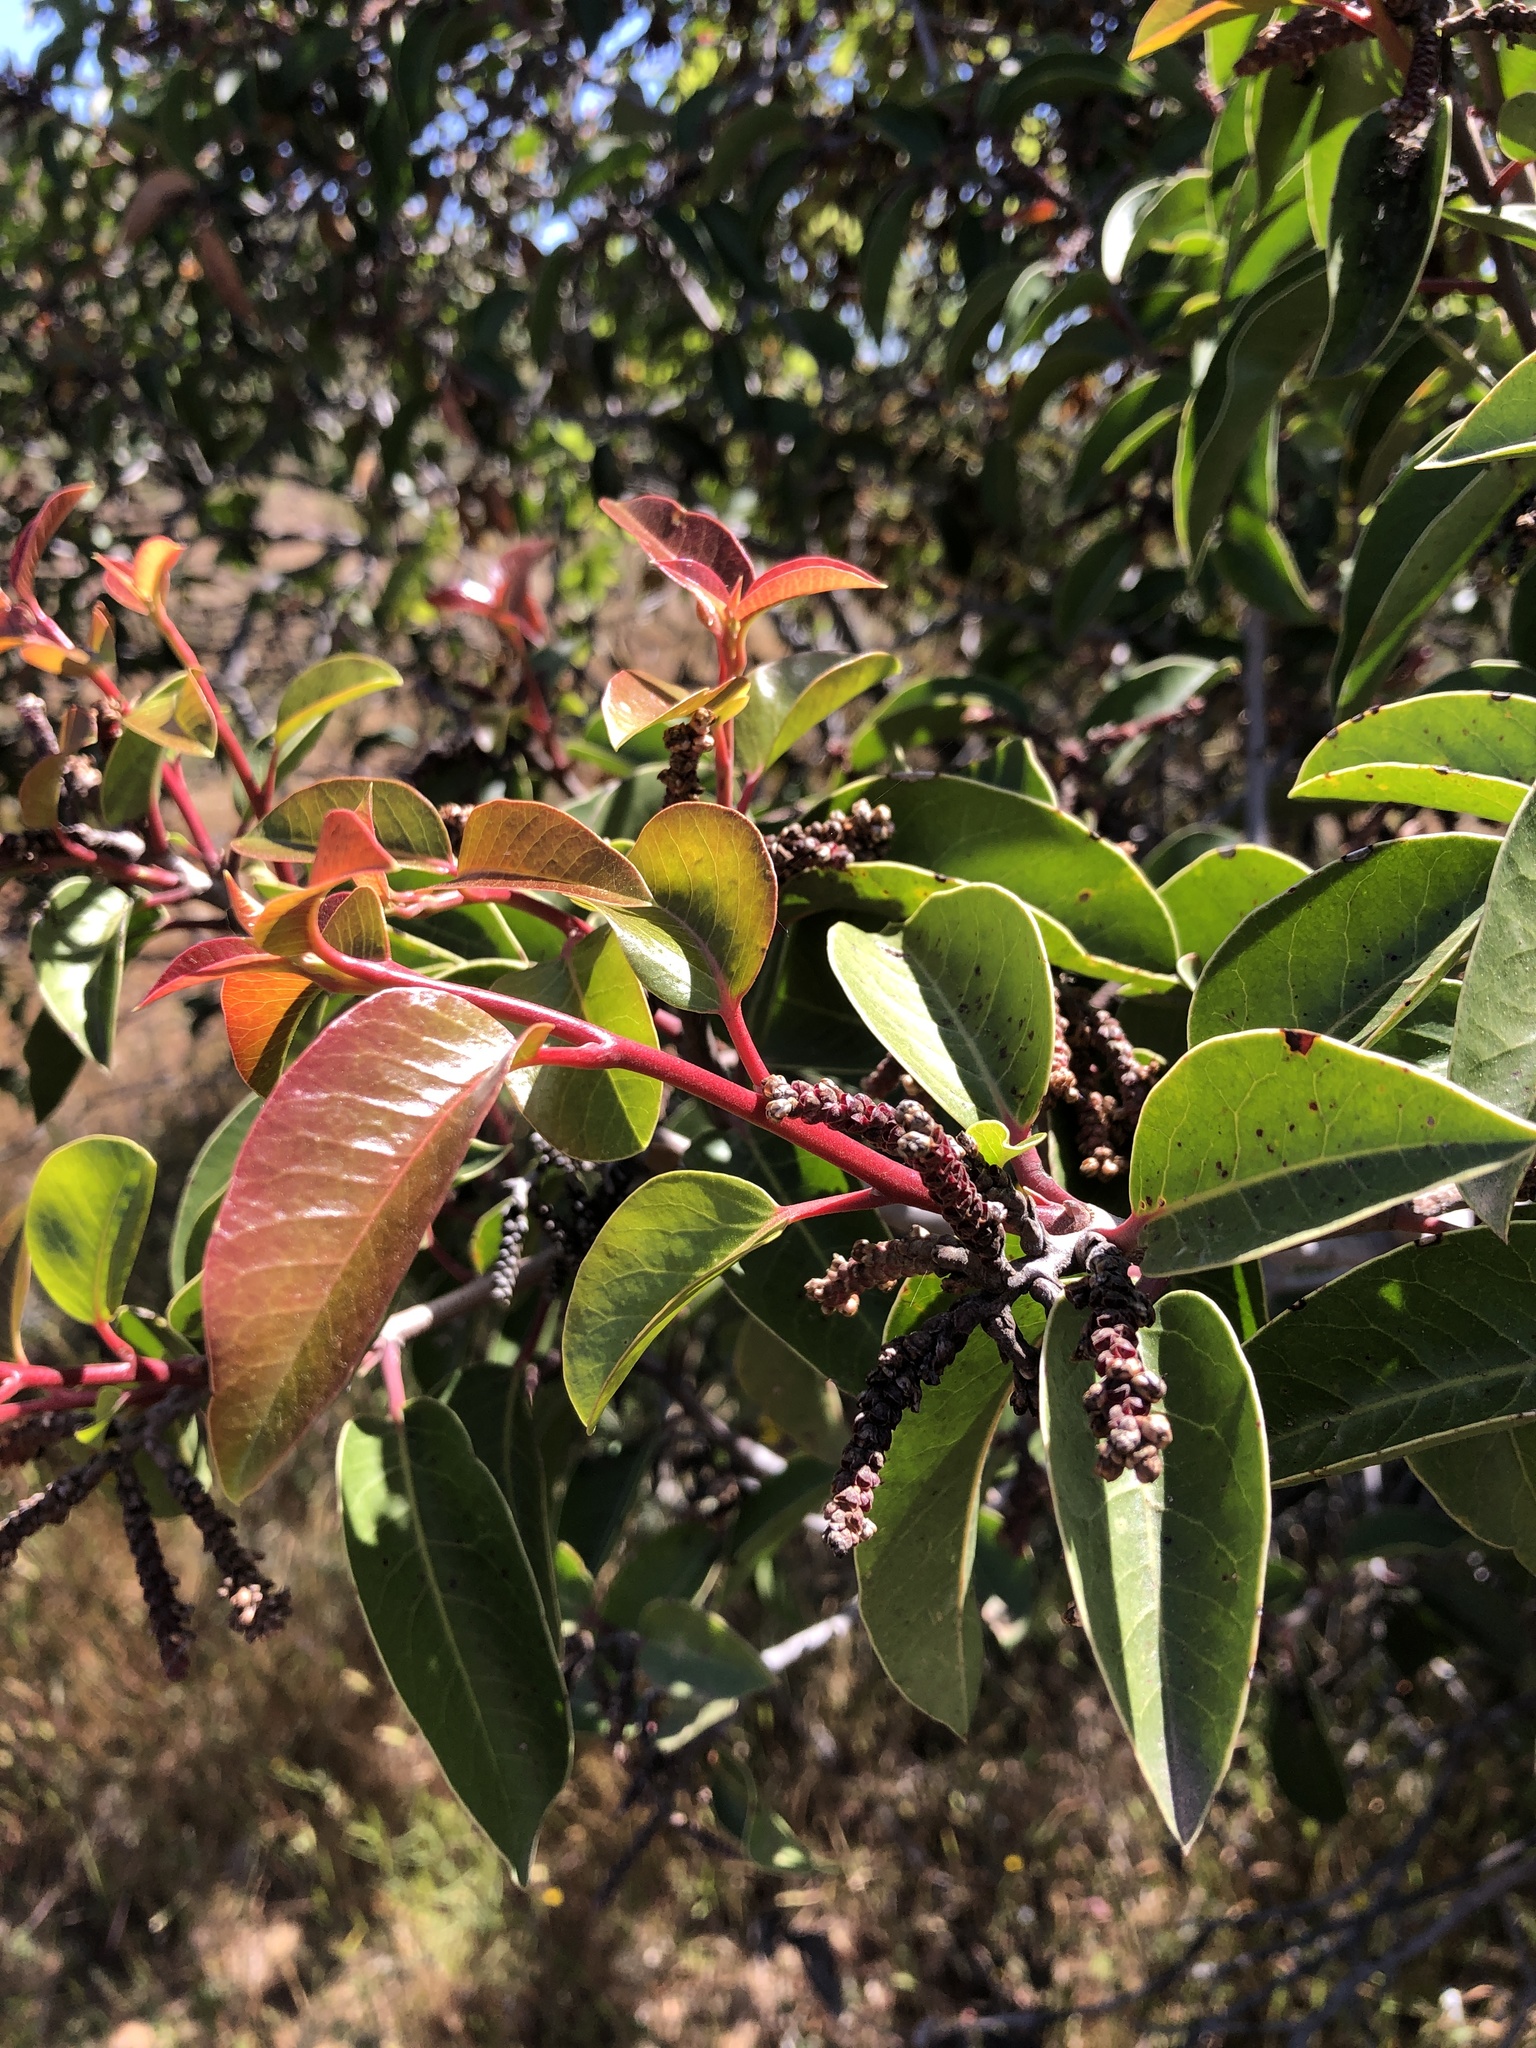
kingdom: Plantae
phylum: Tracheophyta
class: Magnoliopsida
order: Sapindales
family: Anacardiaceae
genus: Rhus
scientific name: Rhus ovata
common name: Sugar sumac
